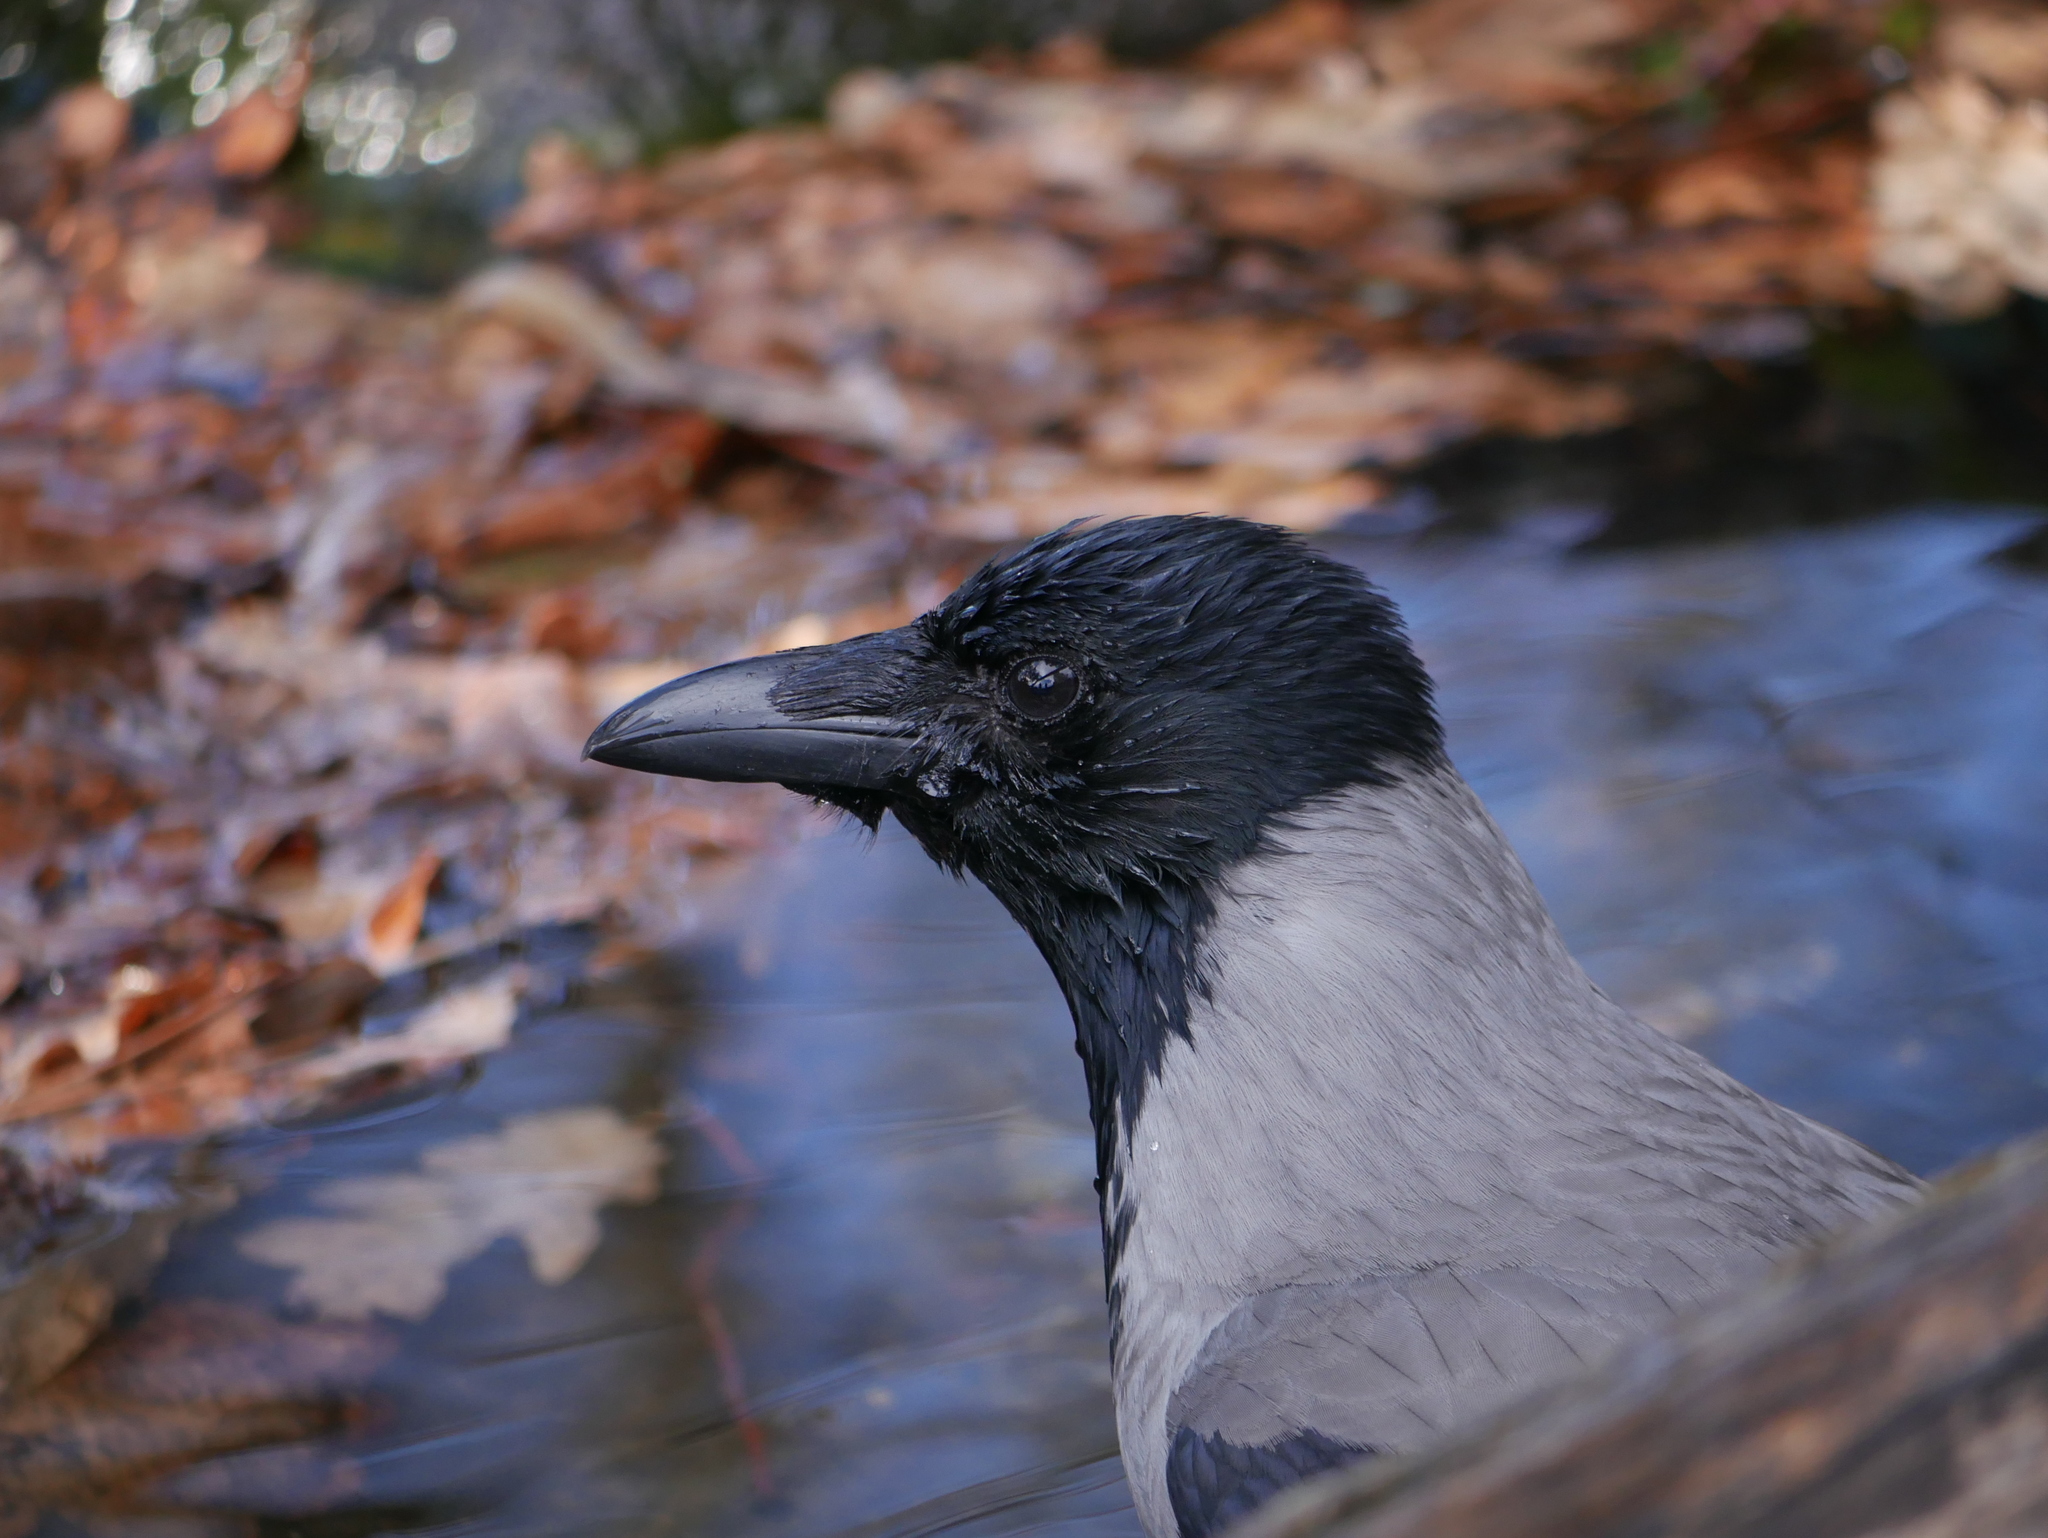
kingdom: Animalia
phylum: Chordata
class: Aves
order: Passeriformes
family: Corvidae
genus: Corvus
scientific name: Corvus cornix
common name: Hooded crow
